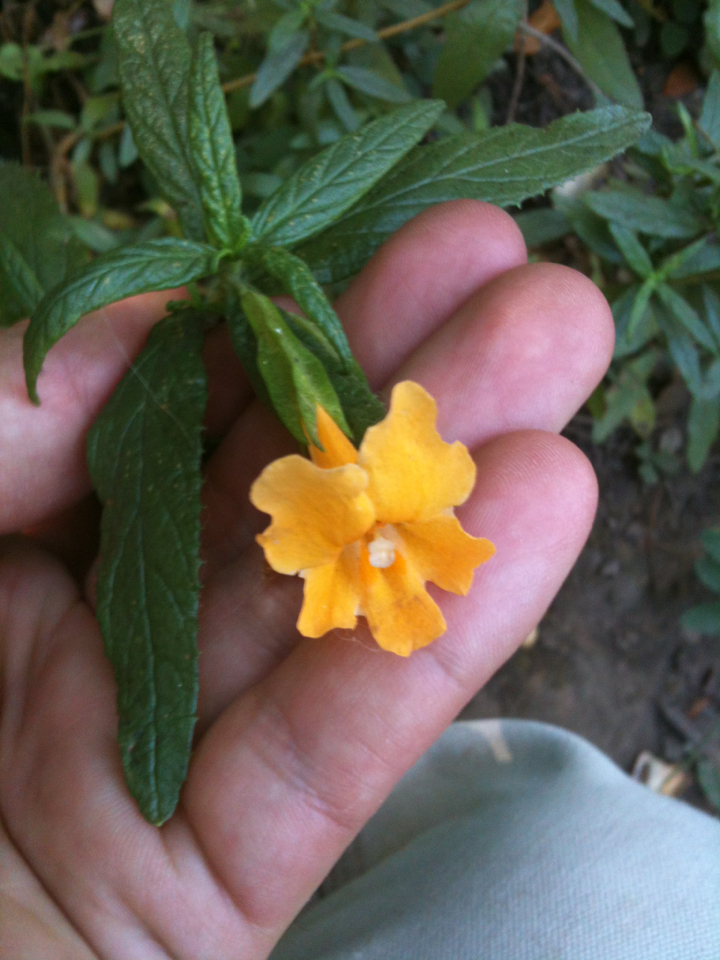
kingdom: Plantae
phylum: Tracheophyta
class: Magnoliopsida
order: Lamiales
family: Phrymaceae
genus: Diplacus
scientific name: Diplacus aurantiacus
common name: Bush monkey-flower
